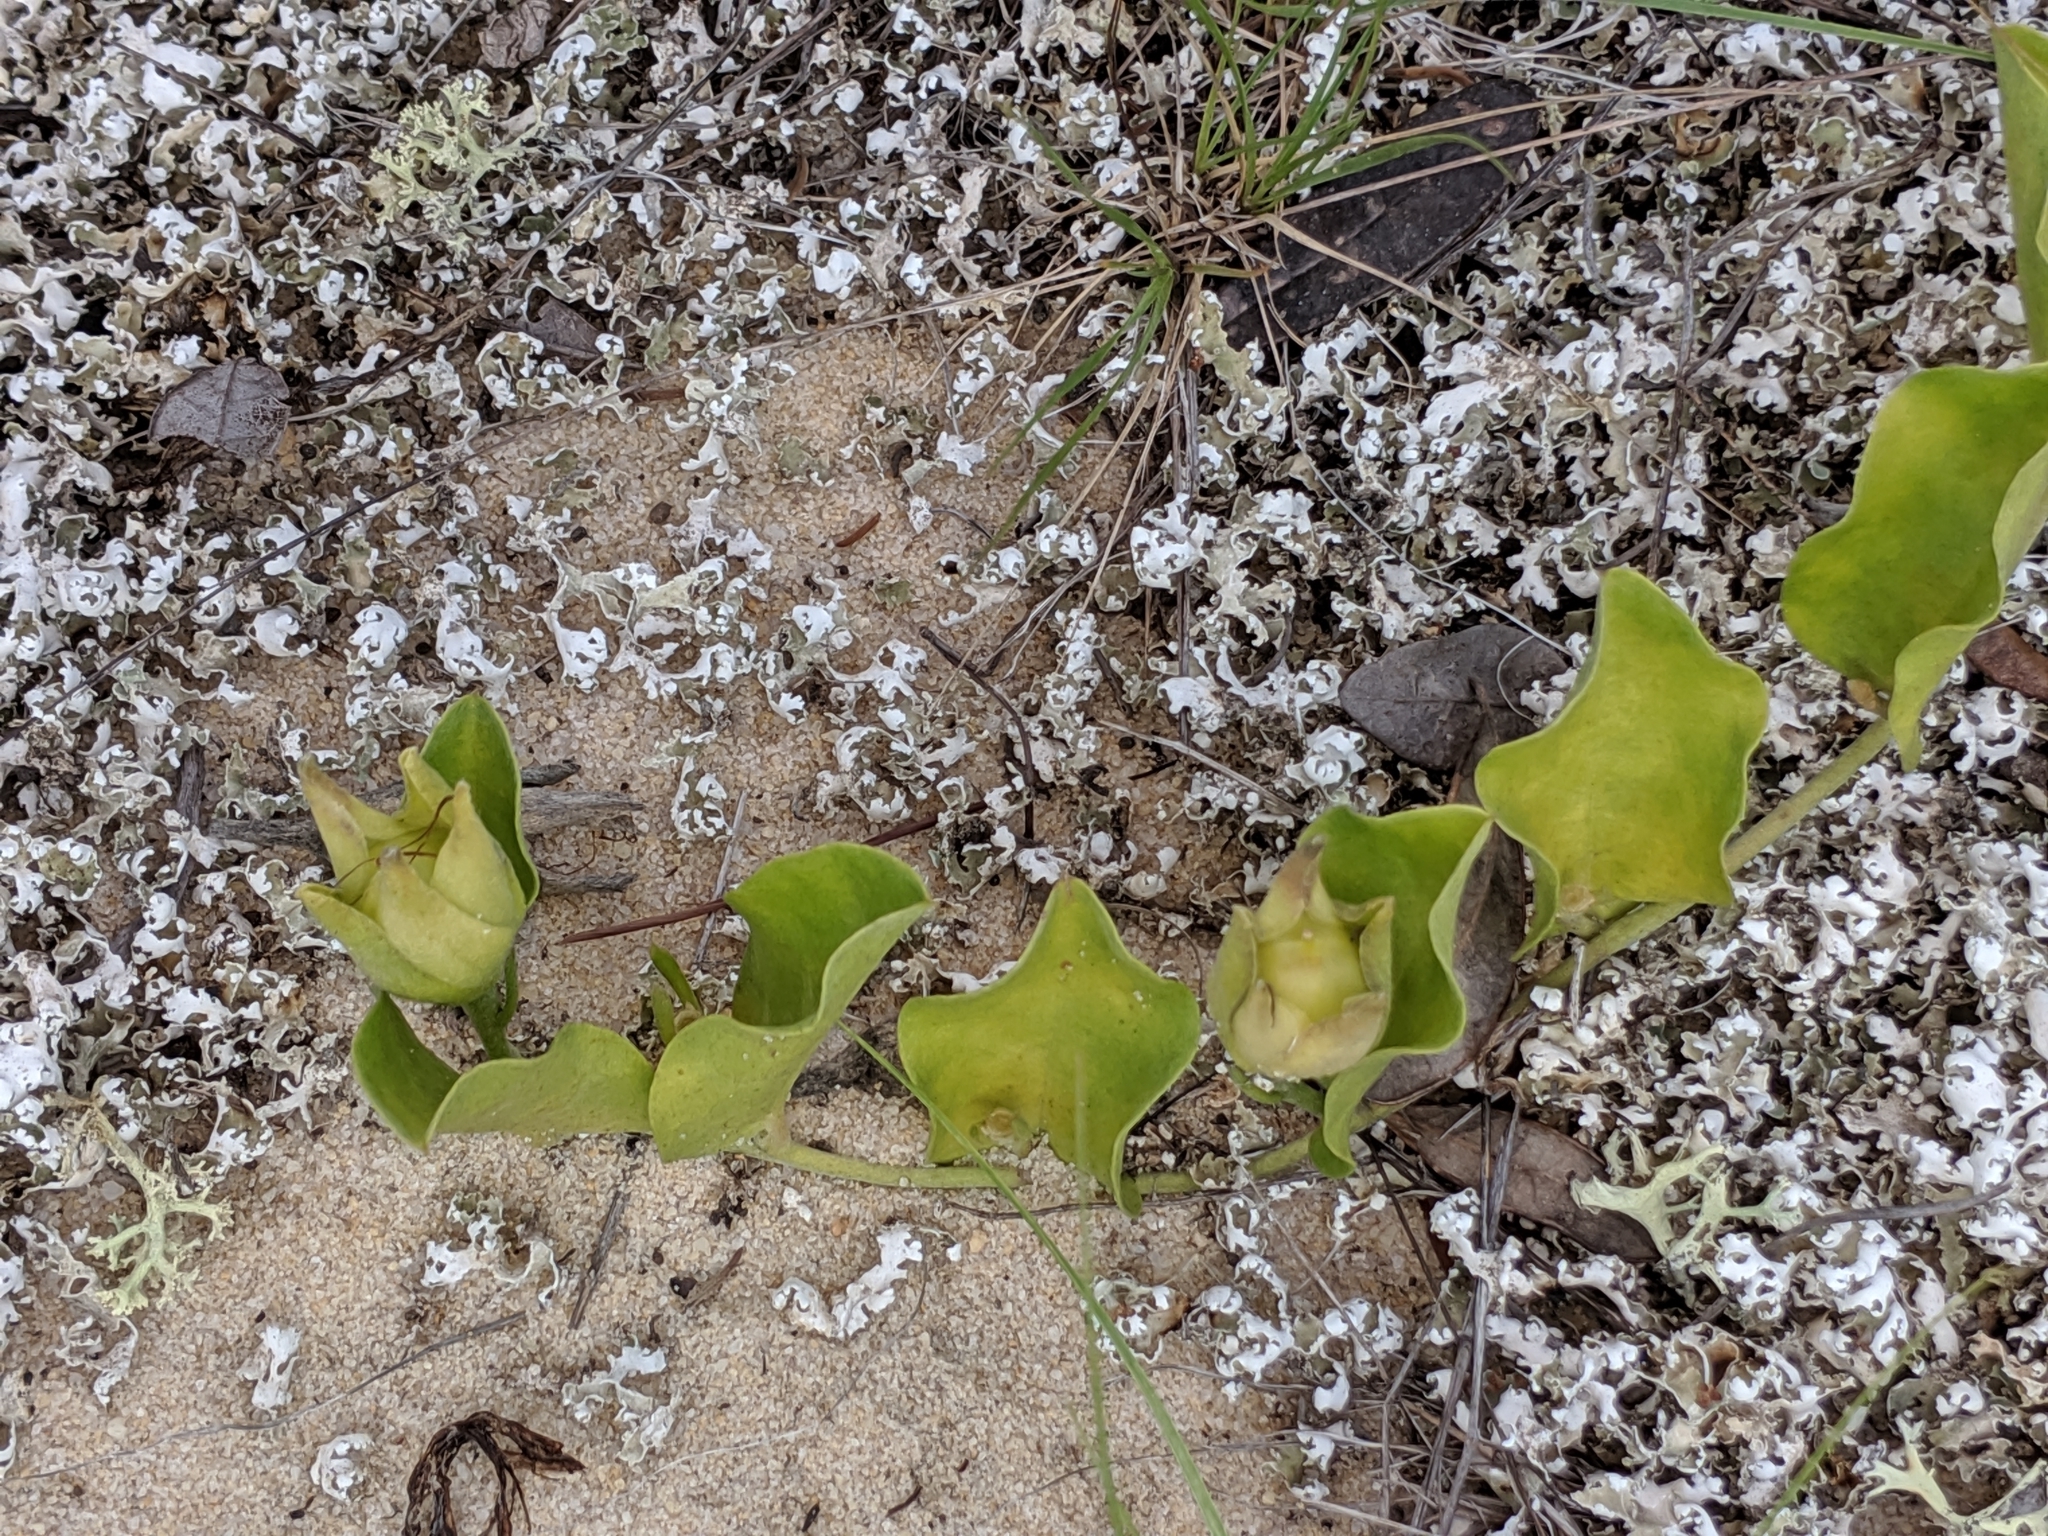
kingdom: Plantae
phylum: Tracheophyta
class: Magnoliopsida
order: Solanales
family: Convolvulaceae
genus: Bonamia
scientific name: Bonamia grandiflora
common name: Florida bonamia
